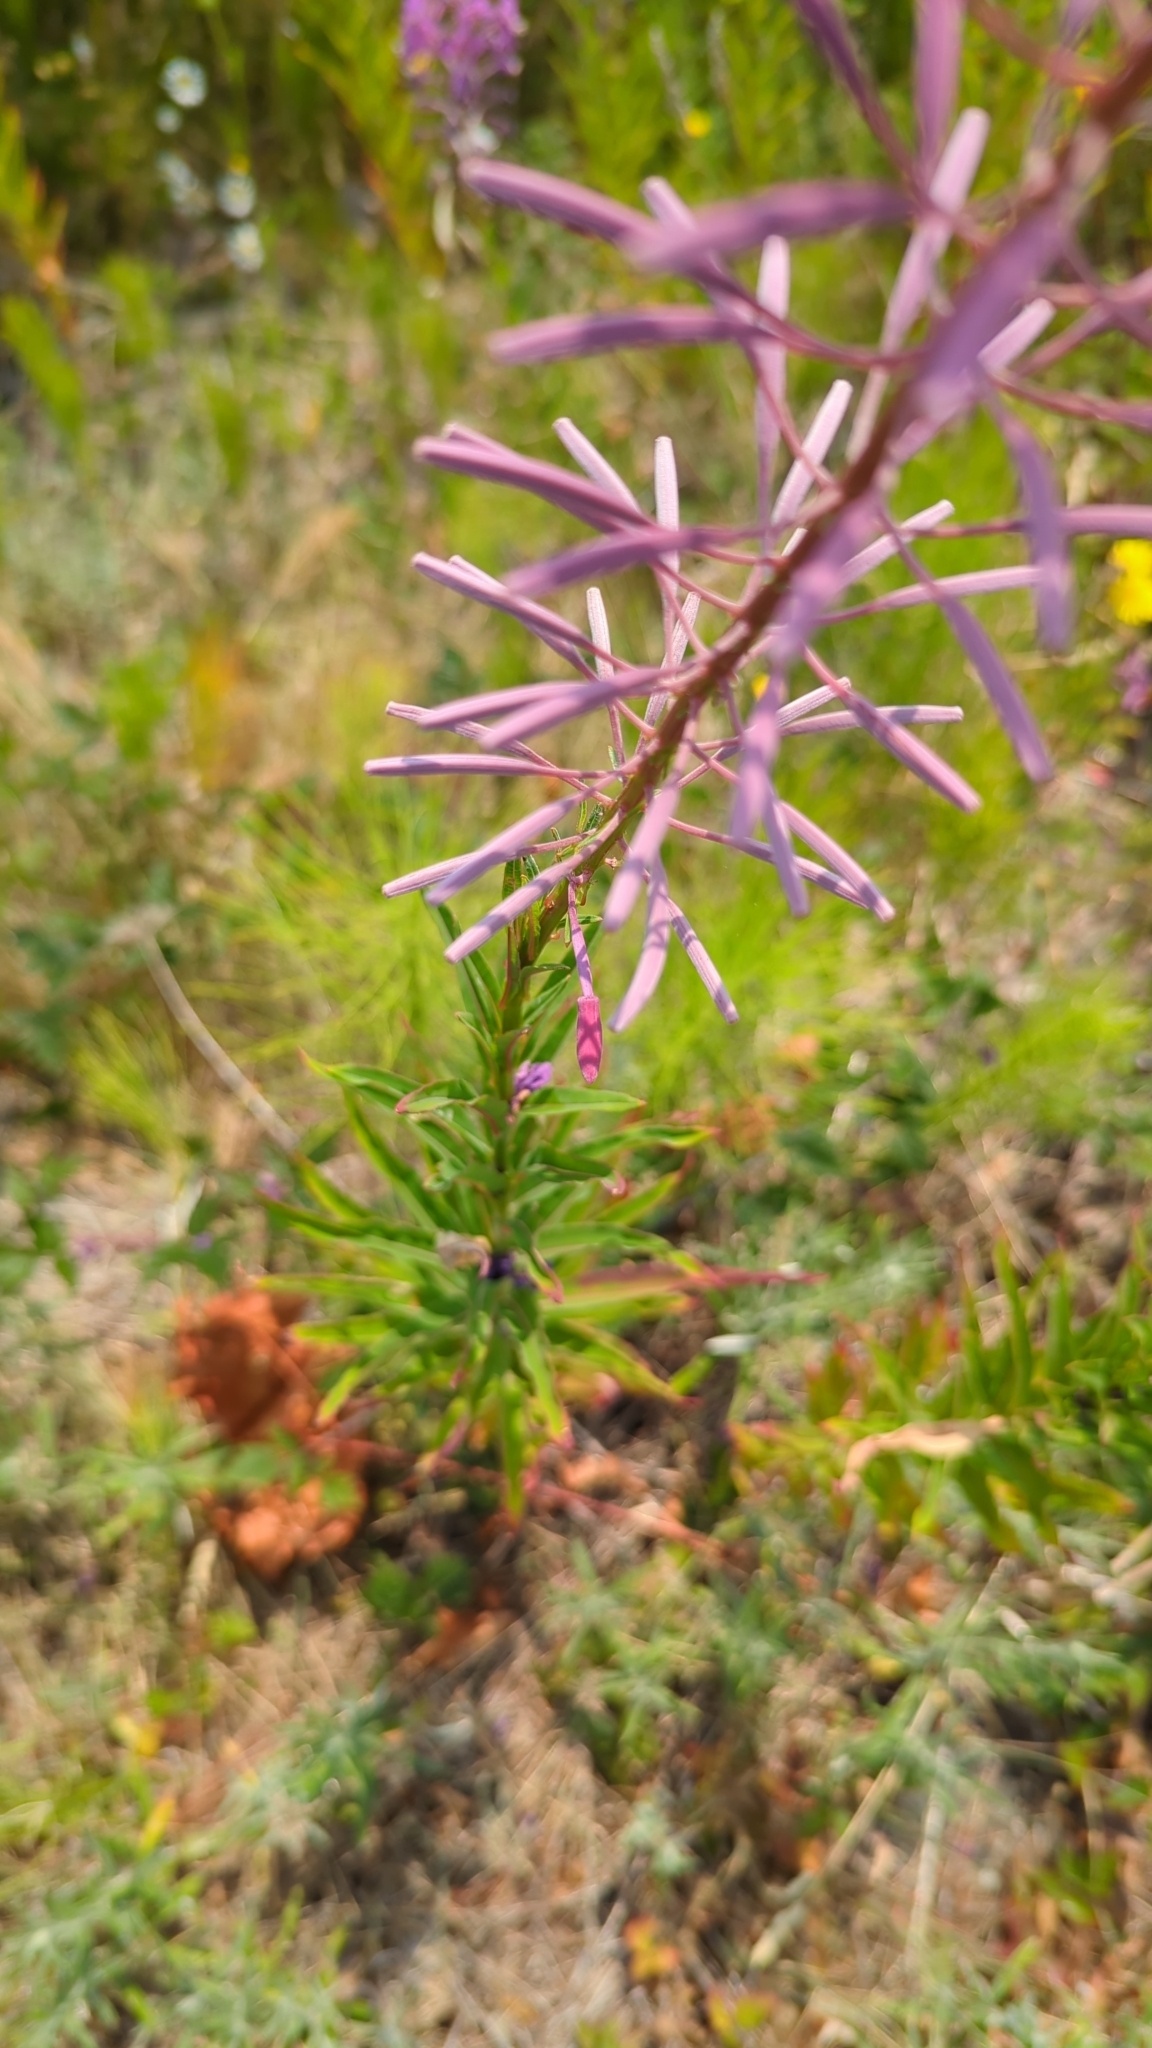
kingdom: Plantae
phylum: Tracheophyta
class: Magnoliopsida
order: Myrtales
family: Onagraceae
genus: Chamaenerion
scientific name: Chamaenerion angustifolium
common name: Fireweed
